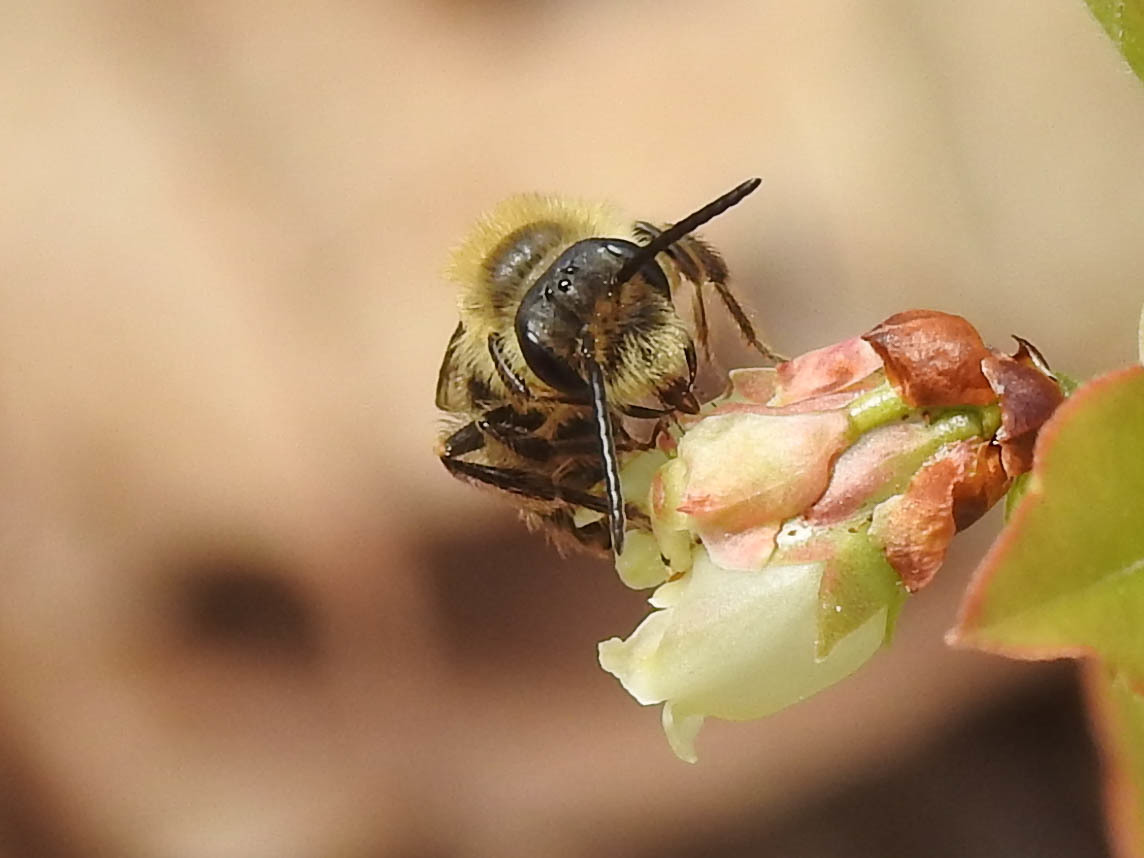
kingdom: Animalia
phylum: Arthropoda
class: Insecta
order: Hymenoptera
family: Andrenidae
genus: Andrena
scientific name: Andrena
